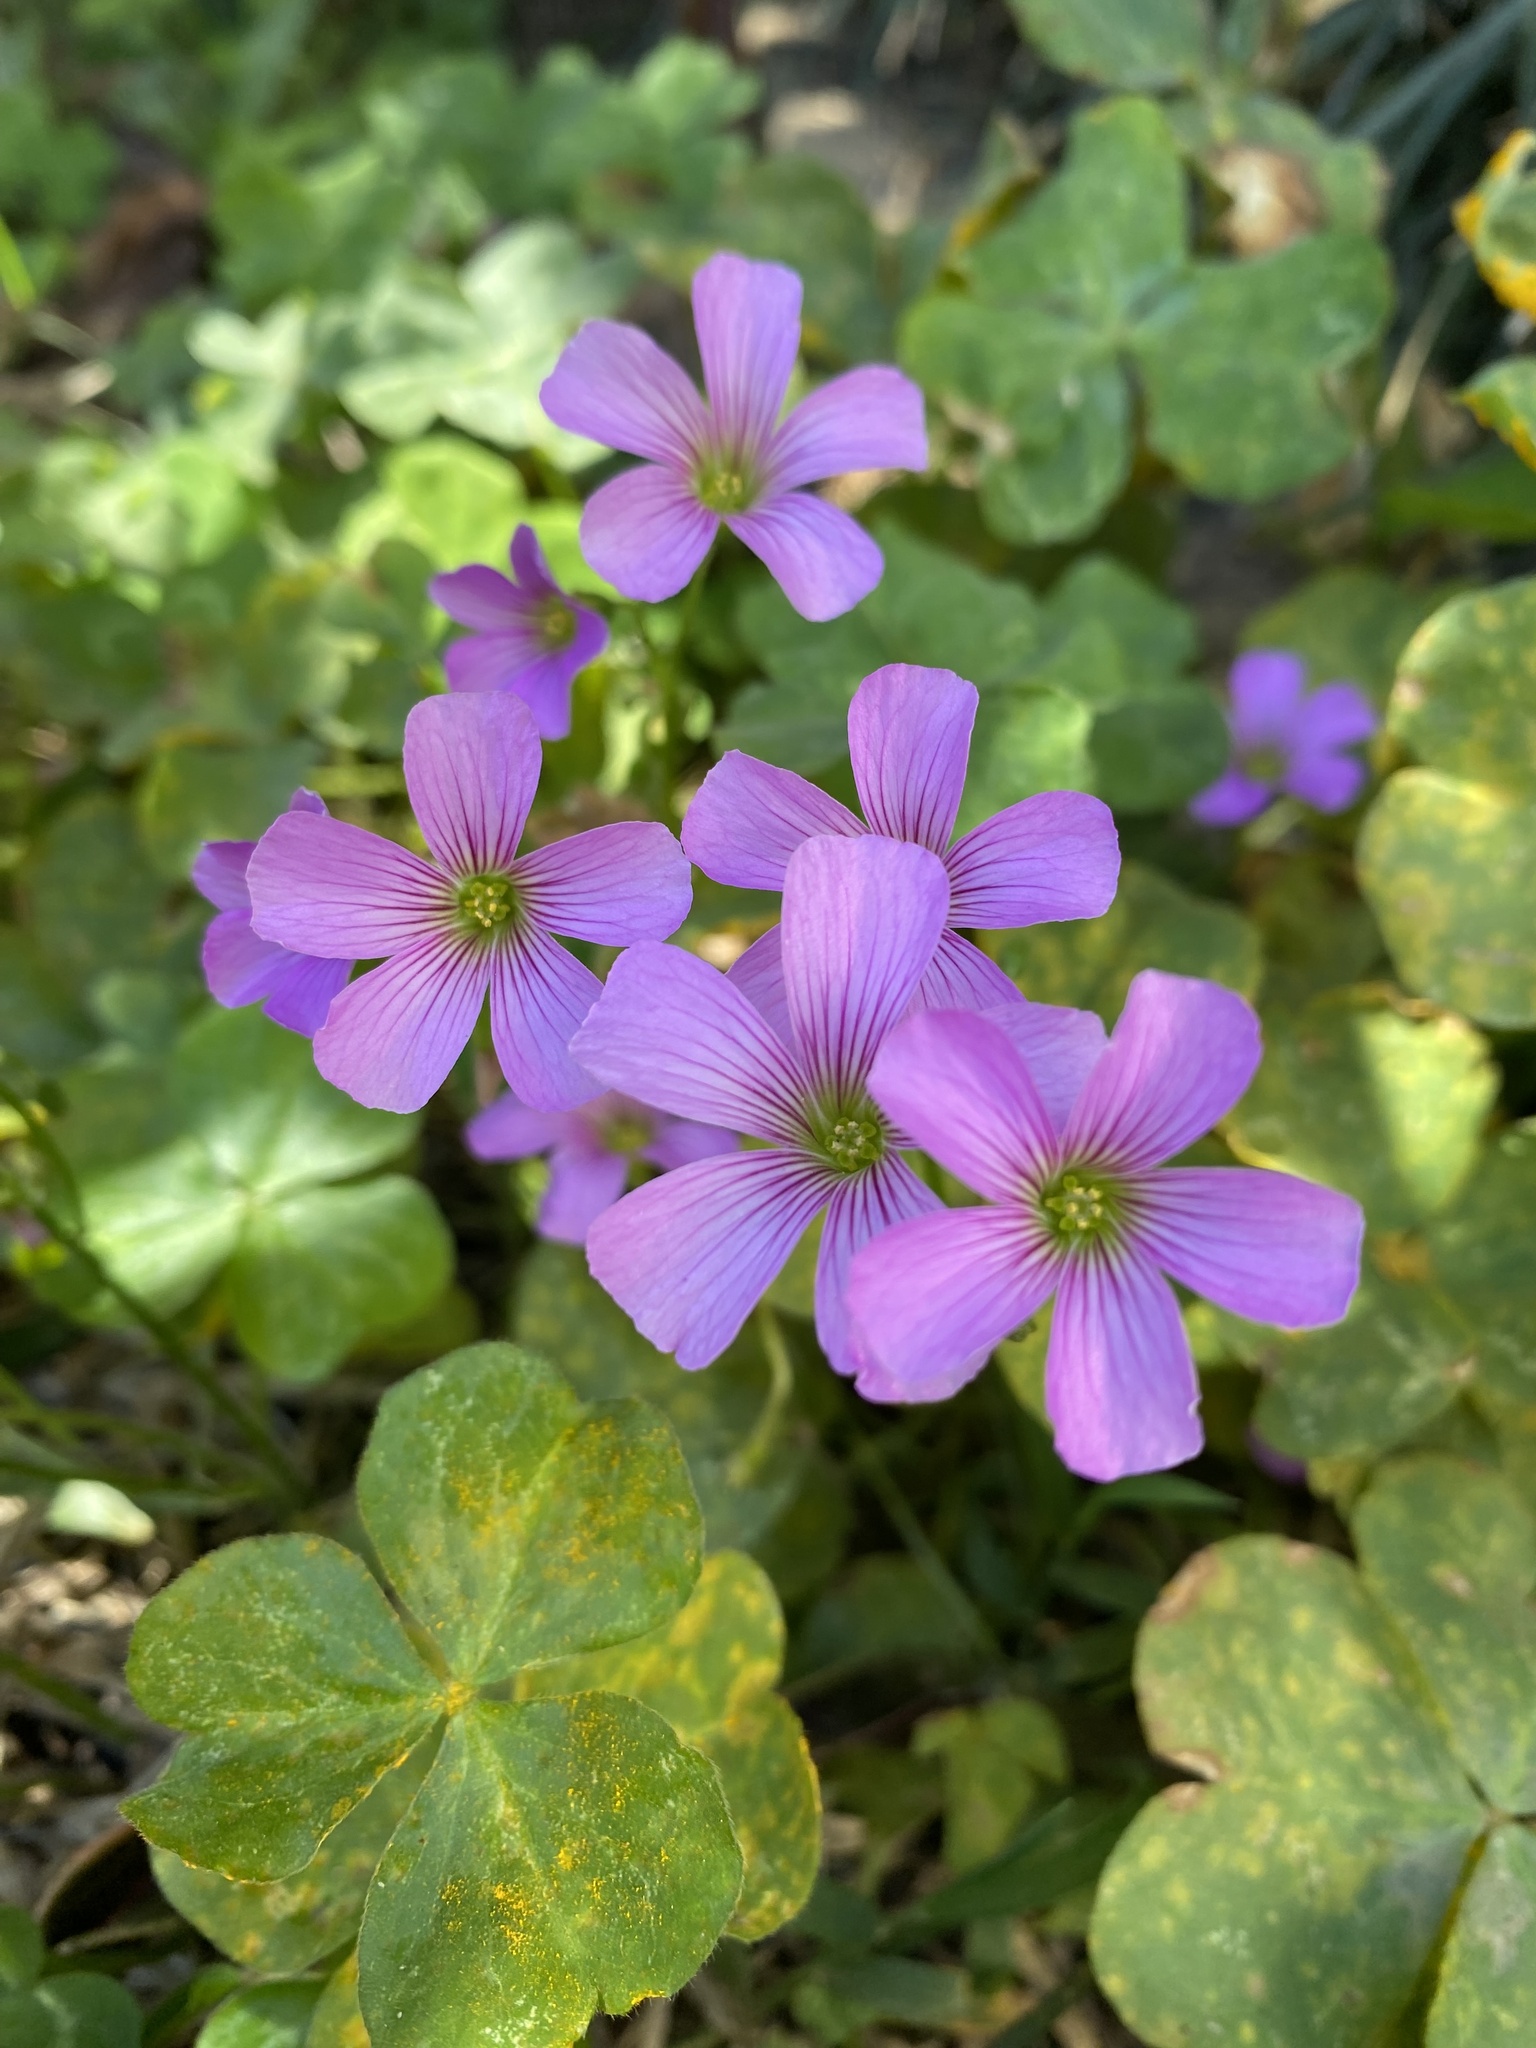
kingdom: Plantae
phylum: Tracheophyta
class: Magnoliopsida
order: Oxalidales
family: Oxalidaceae
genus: Oxalis
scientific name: Oxalis debilis
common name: Large-flowered pink-sorrel
